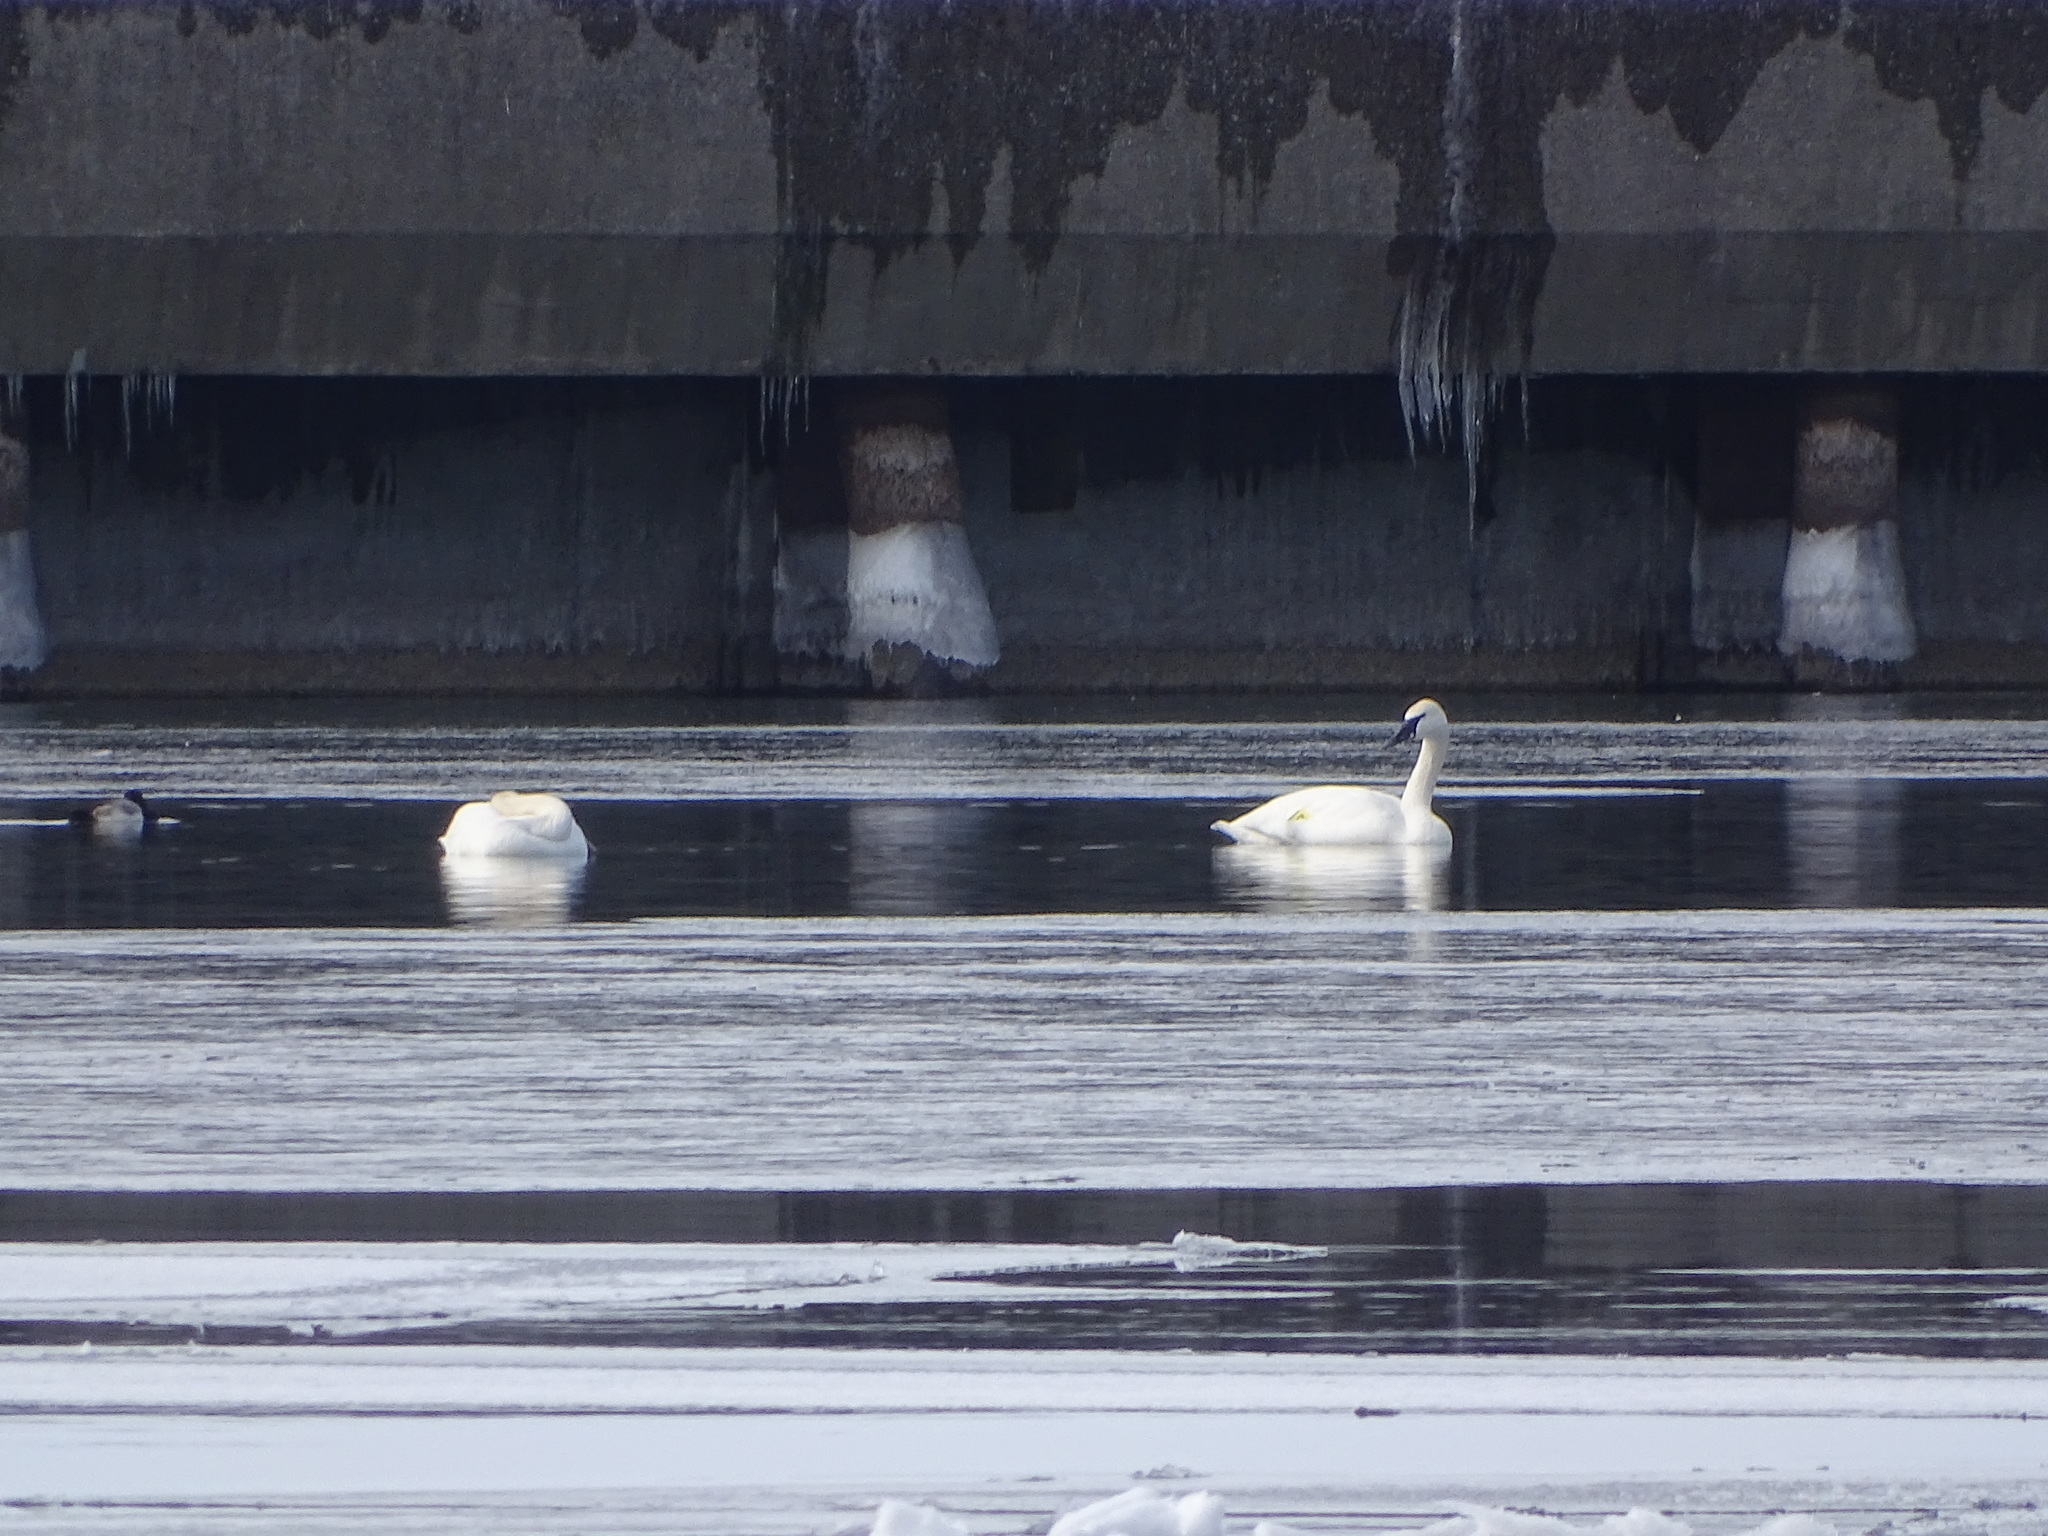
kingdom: Animalia
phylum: Chordata
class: Aves
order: Anseriformes
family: Anatidae
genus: Cygnus
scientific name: Cygnus buccinator
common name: Trumpeter swan
